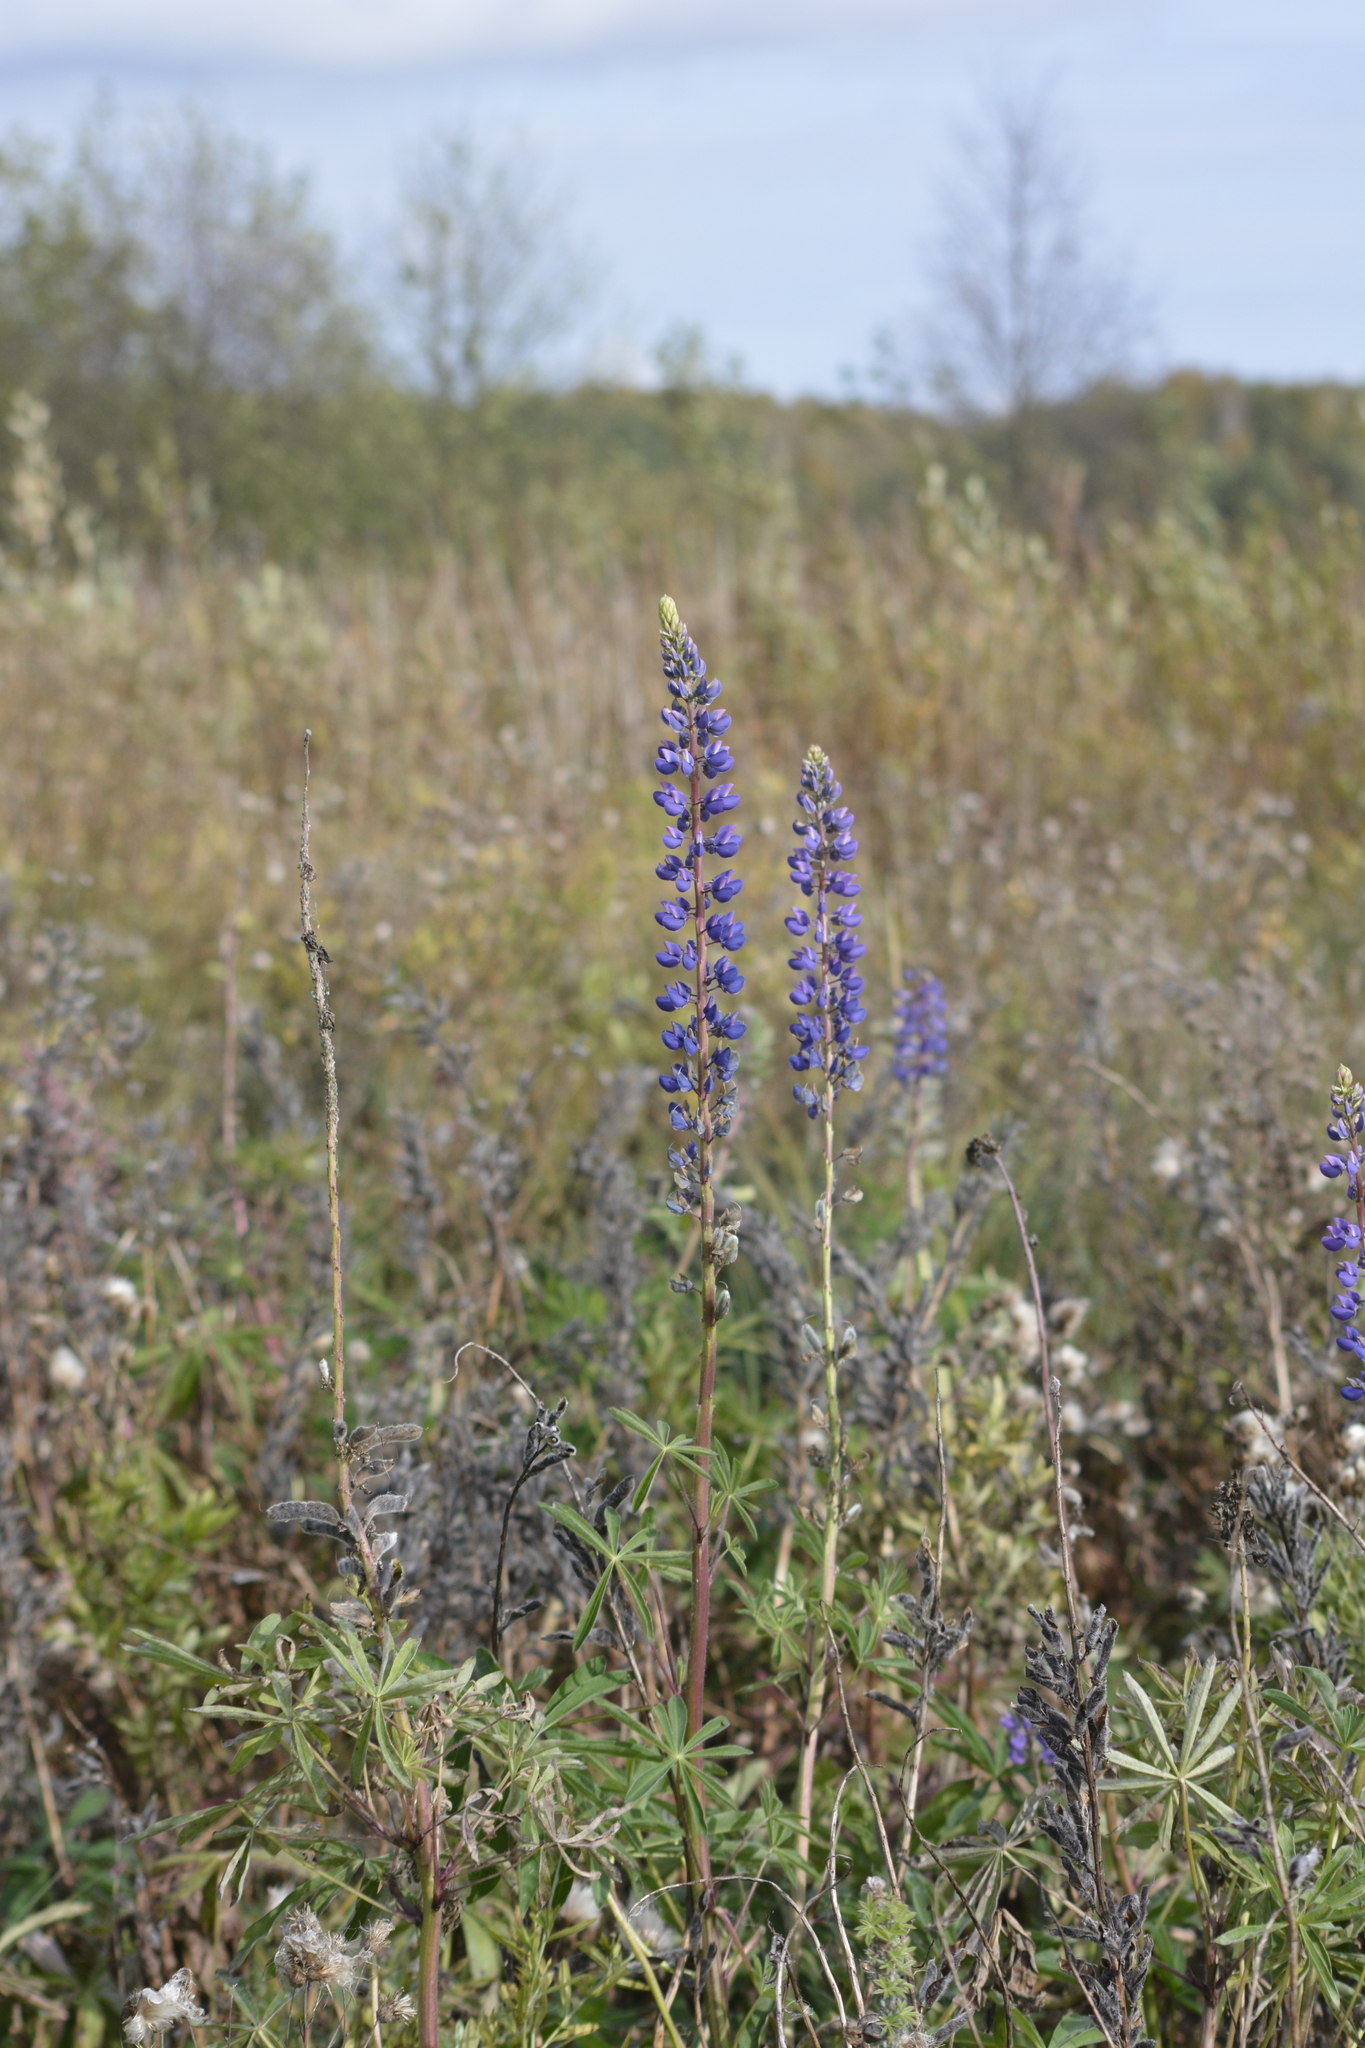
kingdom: Plantae
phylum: Tracheophyta
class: Magnoliopsida
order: Fabales
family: Fabaceae
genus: Lupinus
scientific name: Lupinus polyphyllus
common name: Garden lupin
